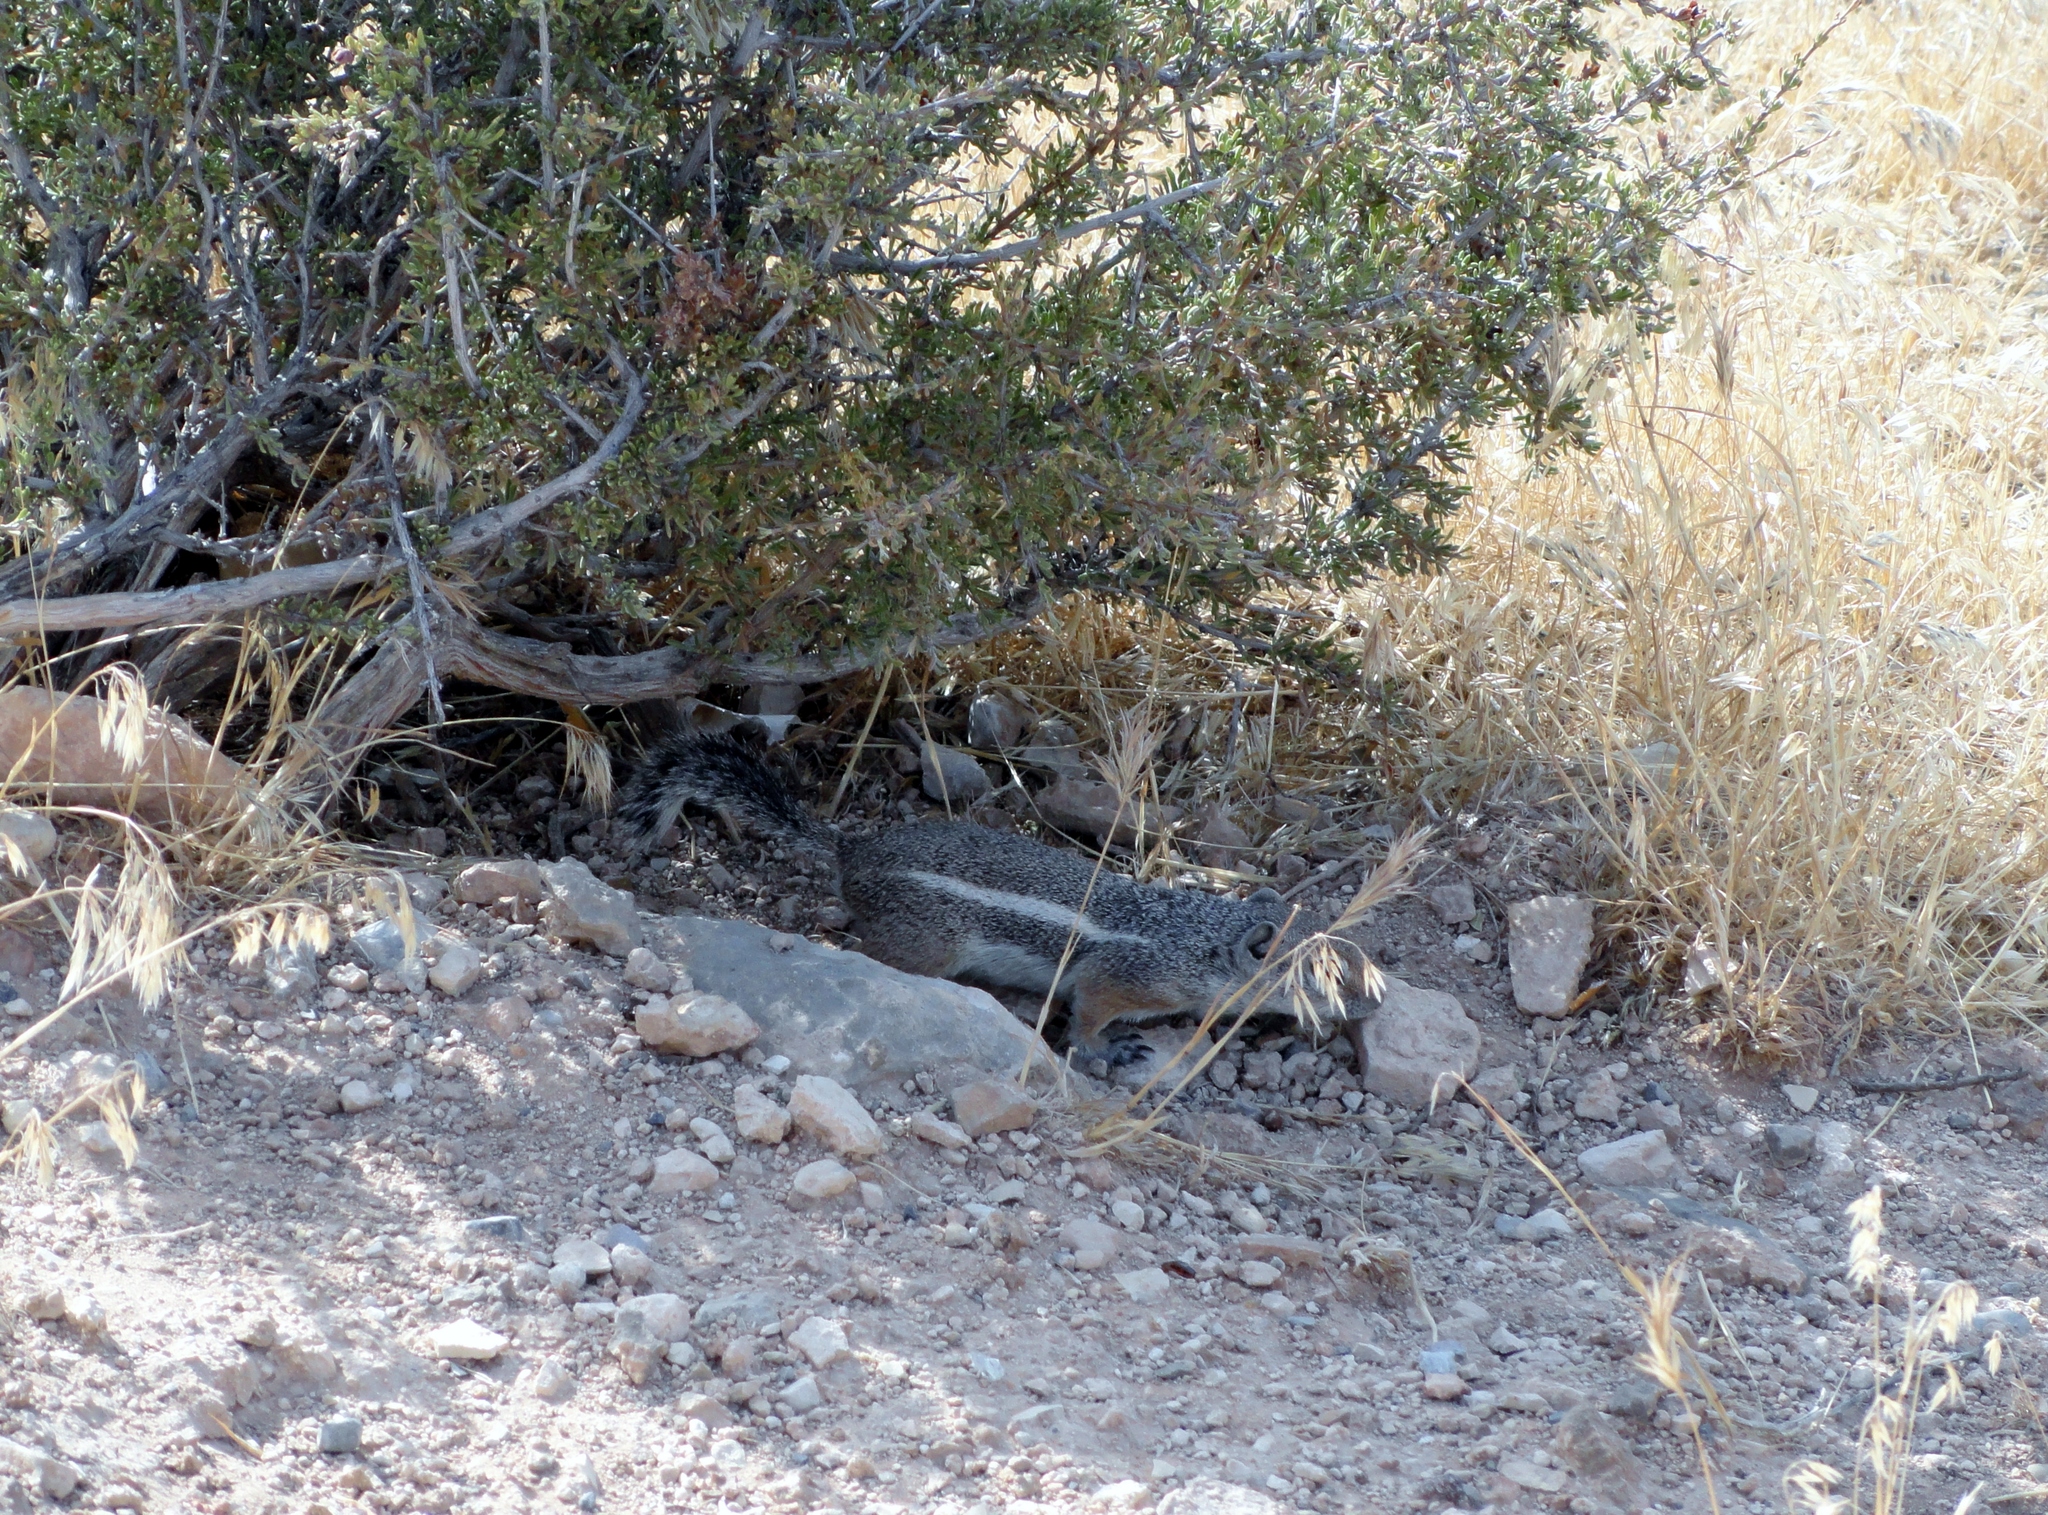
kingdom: Animalia
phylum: Chordata
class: Mammalia
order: Rodentia
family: Sciuridae
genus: Ammospermophilus
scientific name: Ammospermophilus leucurus
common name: White-tailed antelope squirrel
